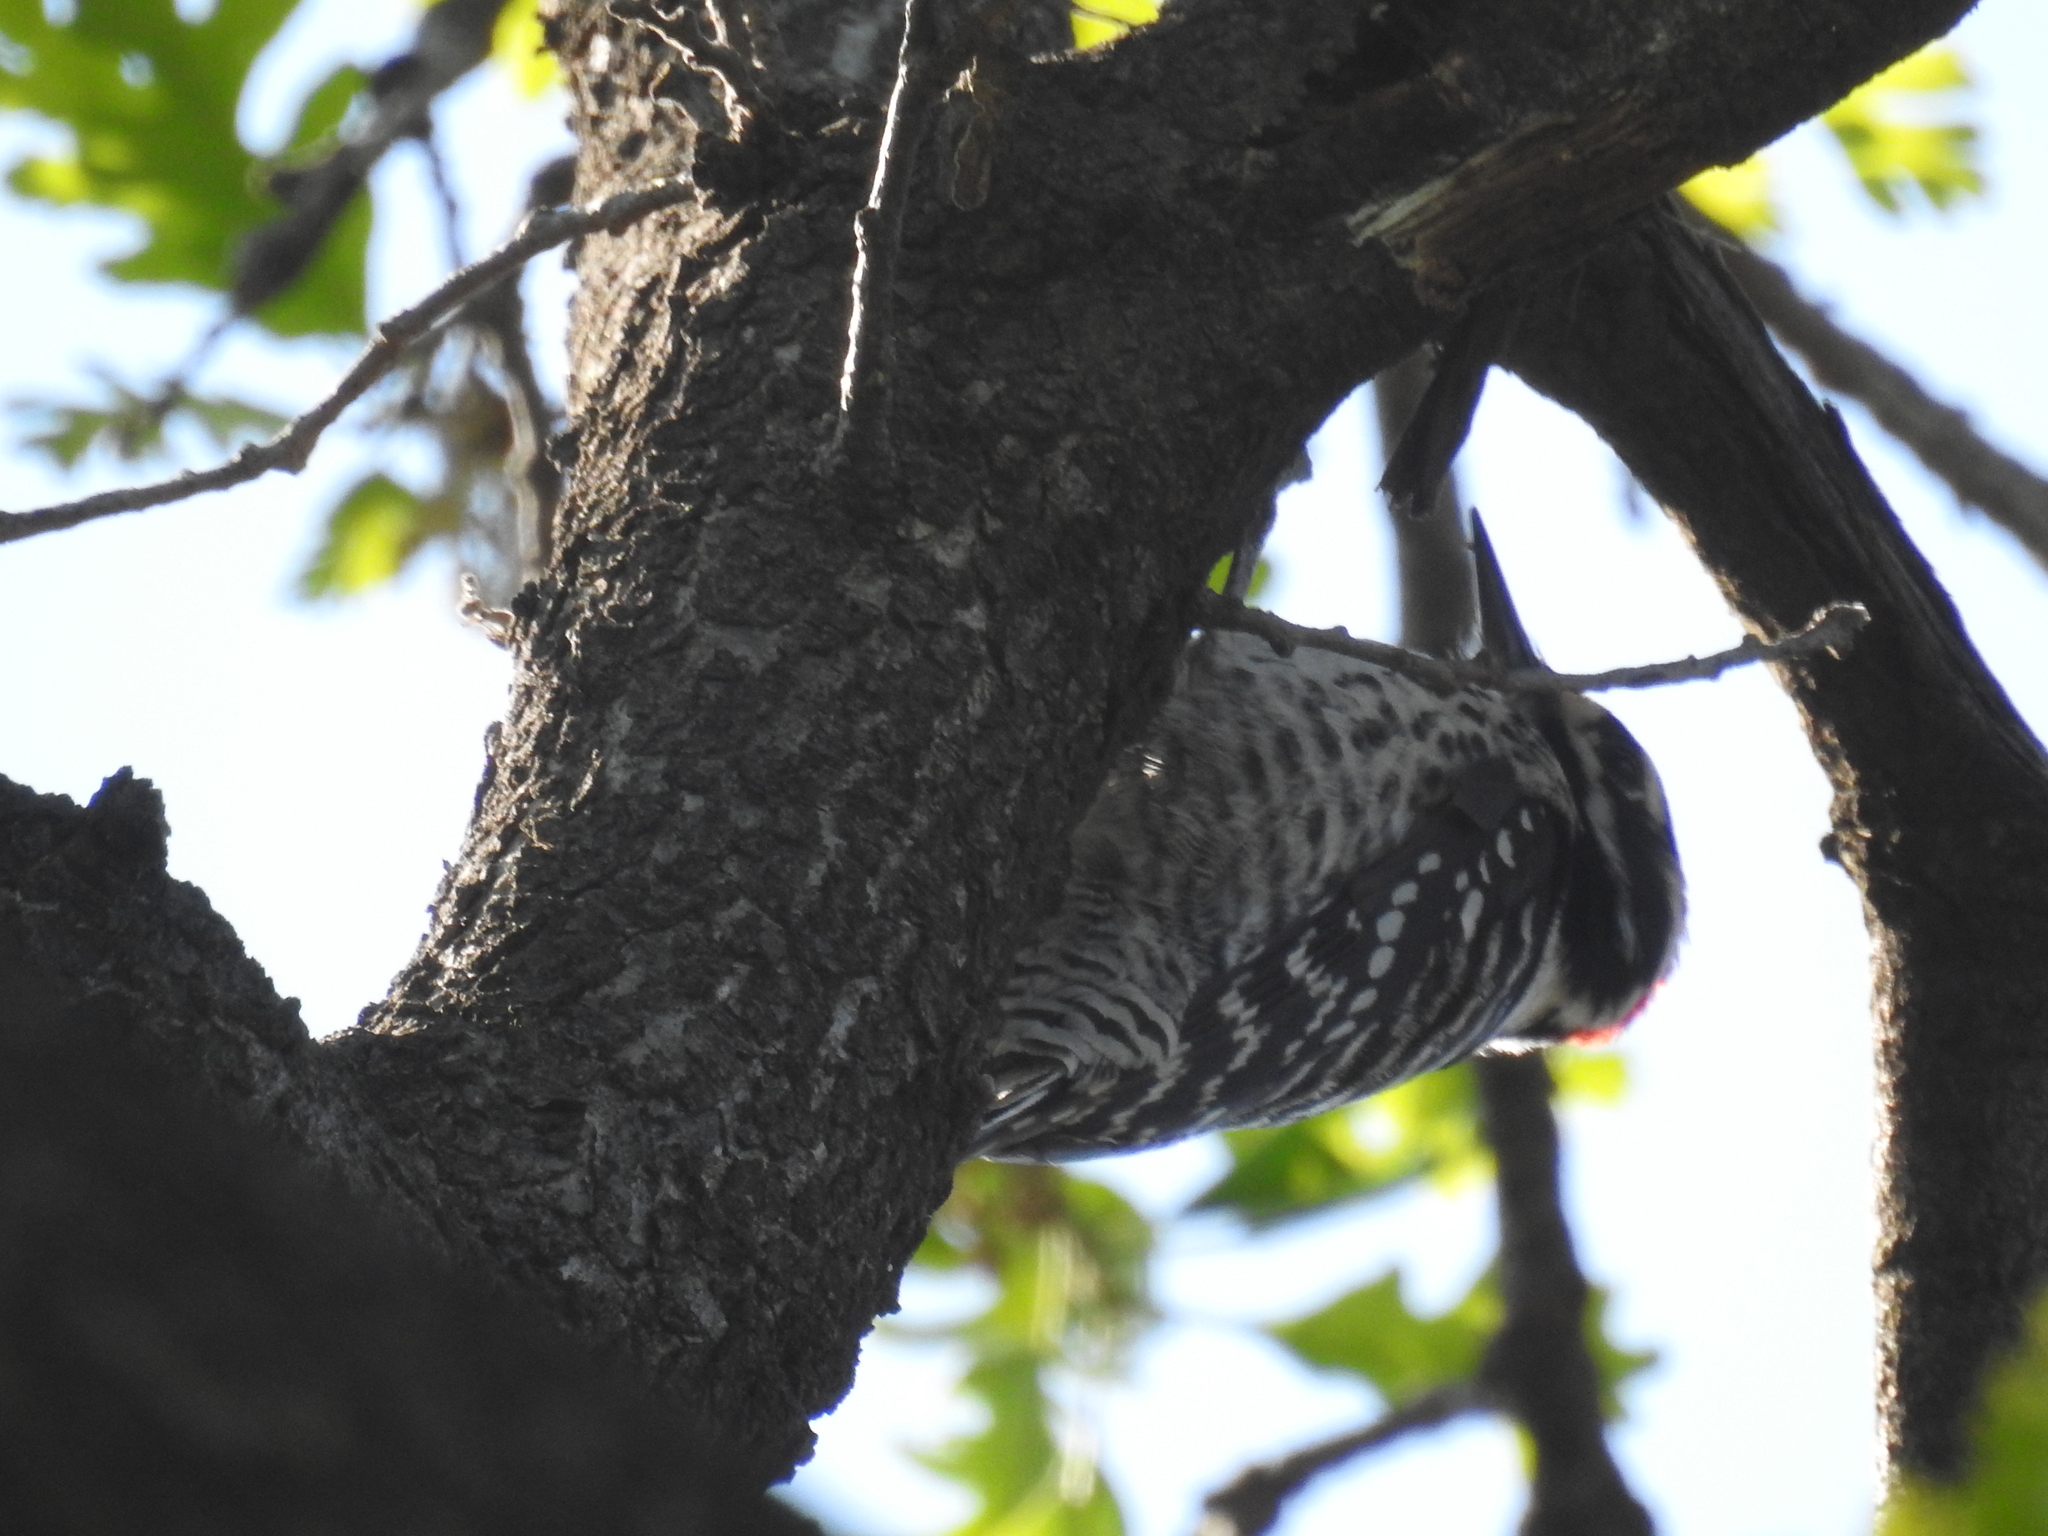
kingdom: Animalia
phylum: Chordata
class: Aves
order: Piciformes
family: Picidae
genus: Dryobates
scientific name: Dryobates nuttallii
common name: Nuttall's woodpecker
